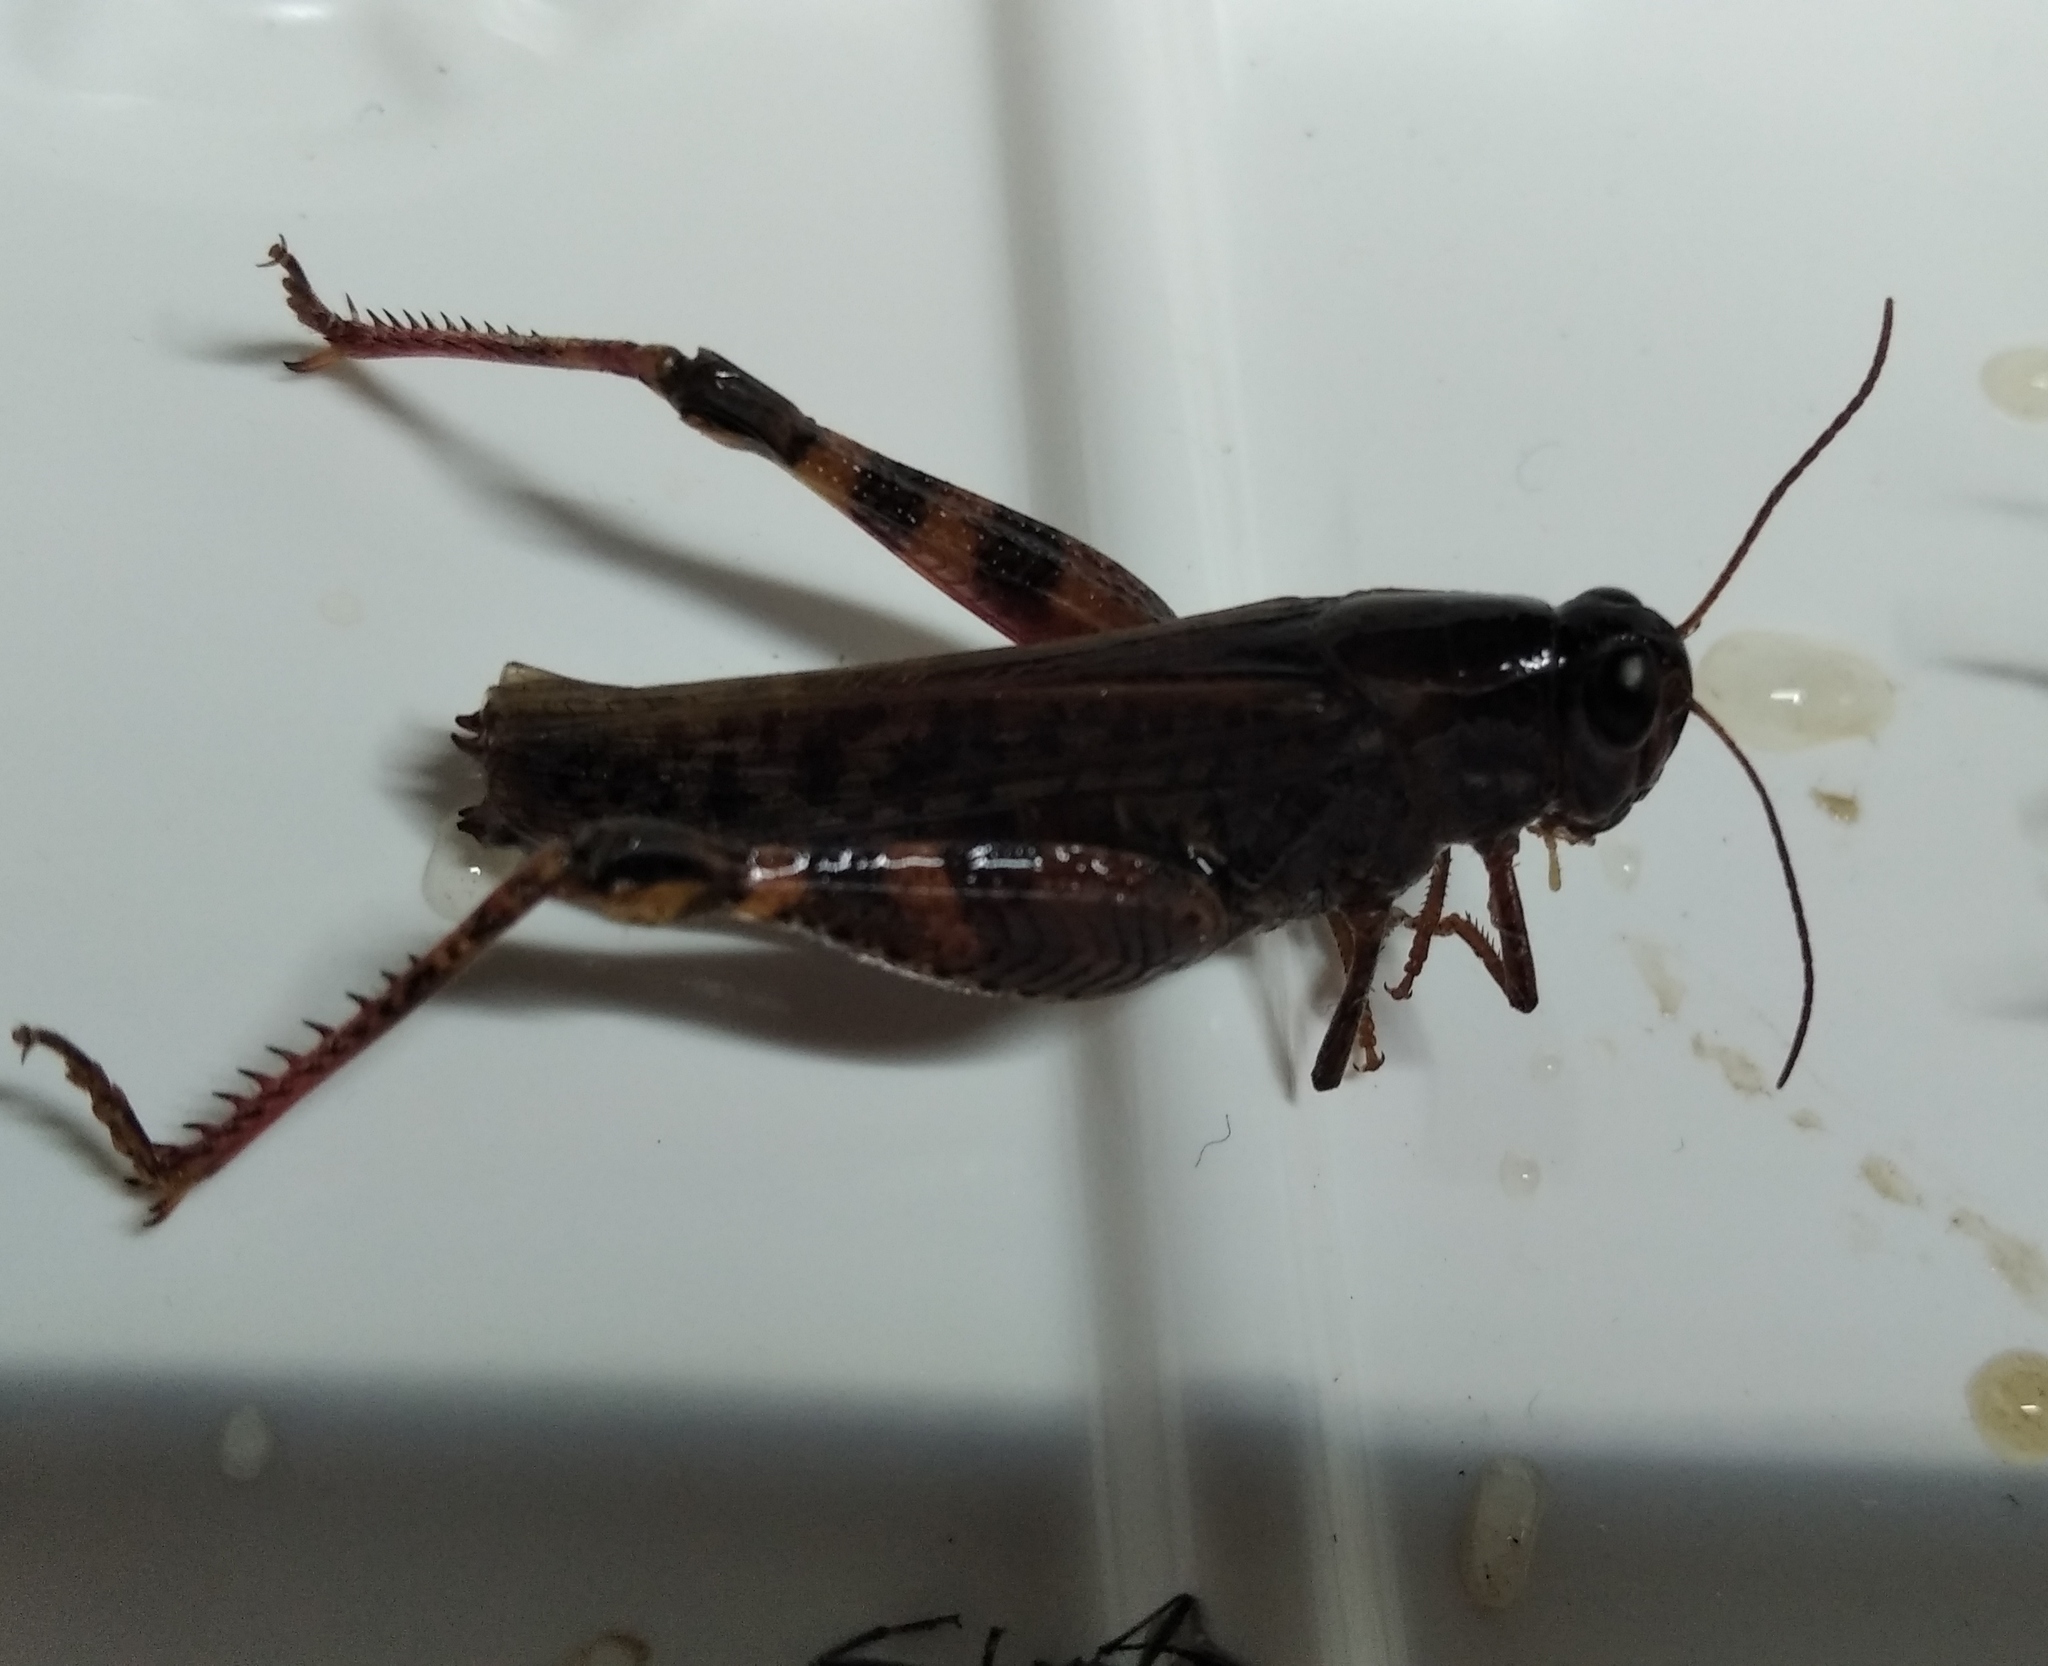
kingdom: Animalia
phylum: Arthropoda
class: Insecta
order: Orthoptera
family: Acrididae
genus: Calliptamus
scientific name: Calliptamus italicus
